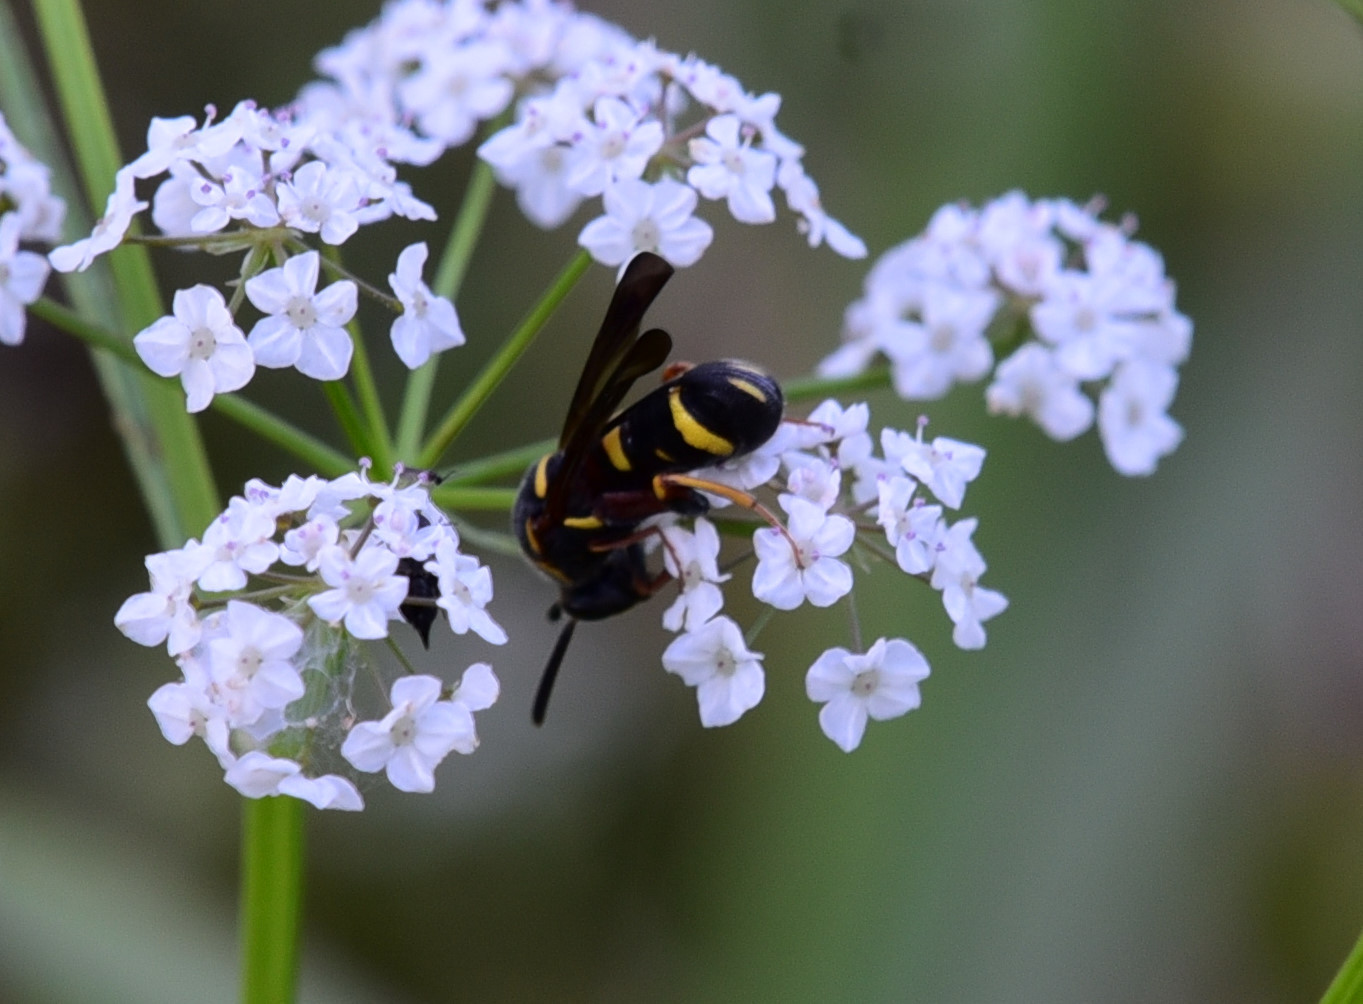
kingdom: Animalia
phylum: Arthropoda
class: Insecta
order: Hymenoptera
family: Leucospidae
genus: Leucospis
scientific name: Leucospis affinis
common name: Wasp
